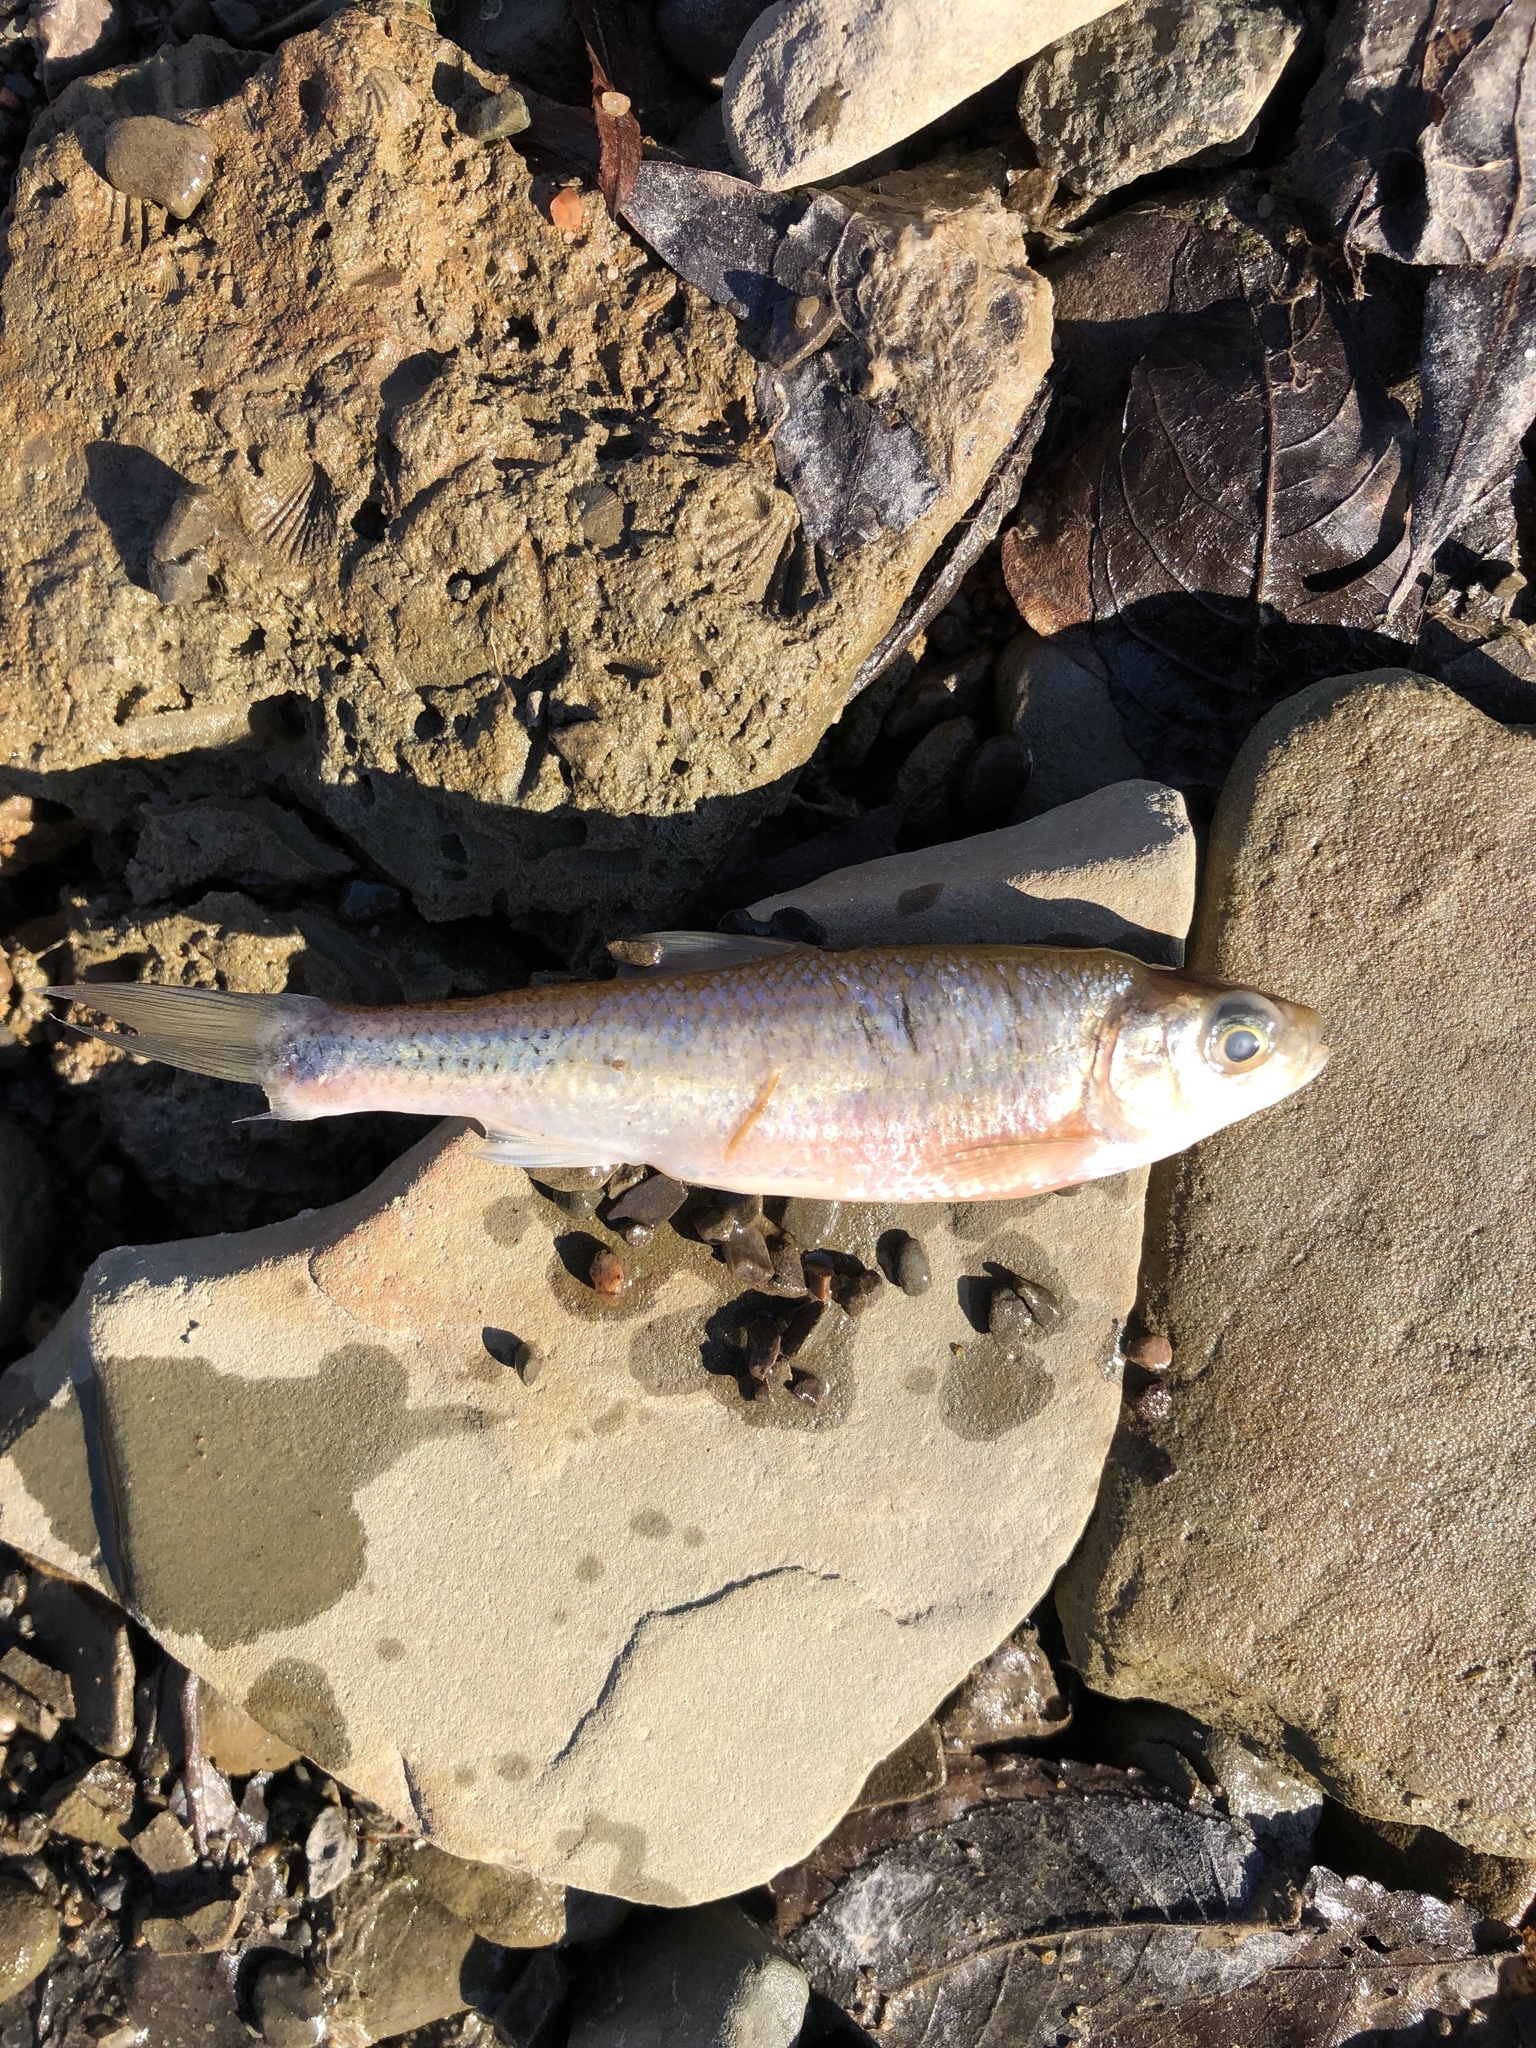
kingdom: Animalia
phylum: Chordata
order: Cypriniformes
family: Cyprinidae
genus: Luxilus
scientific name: Luxilus cornutus
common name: Common shiner
